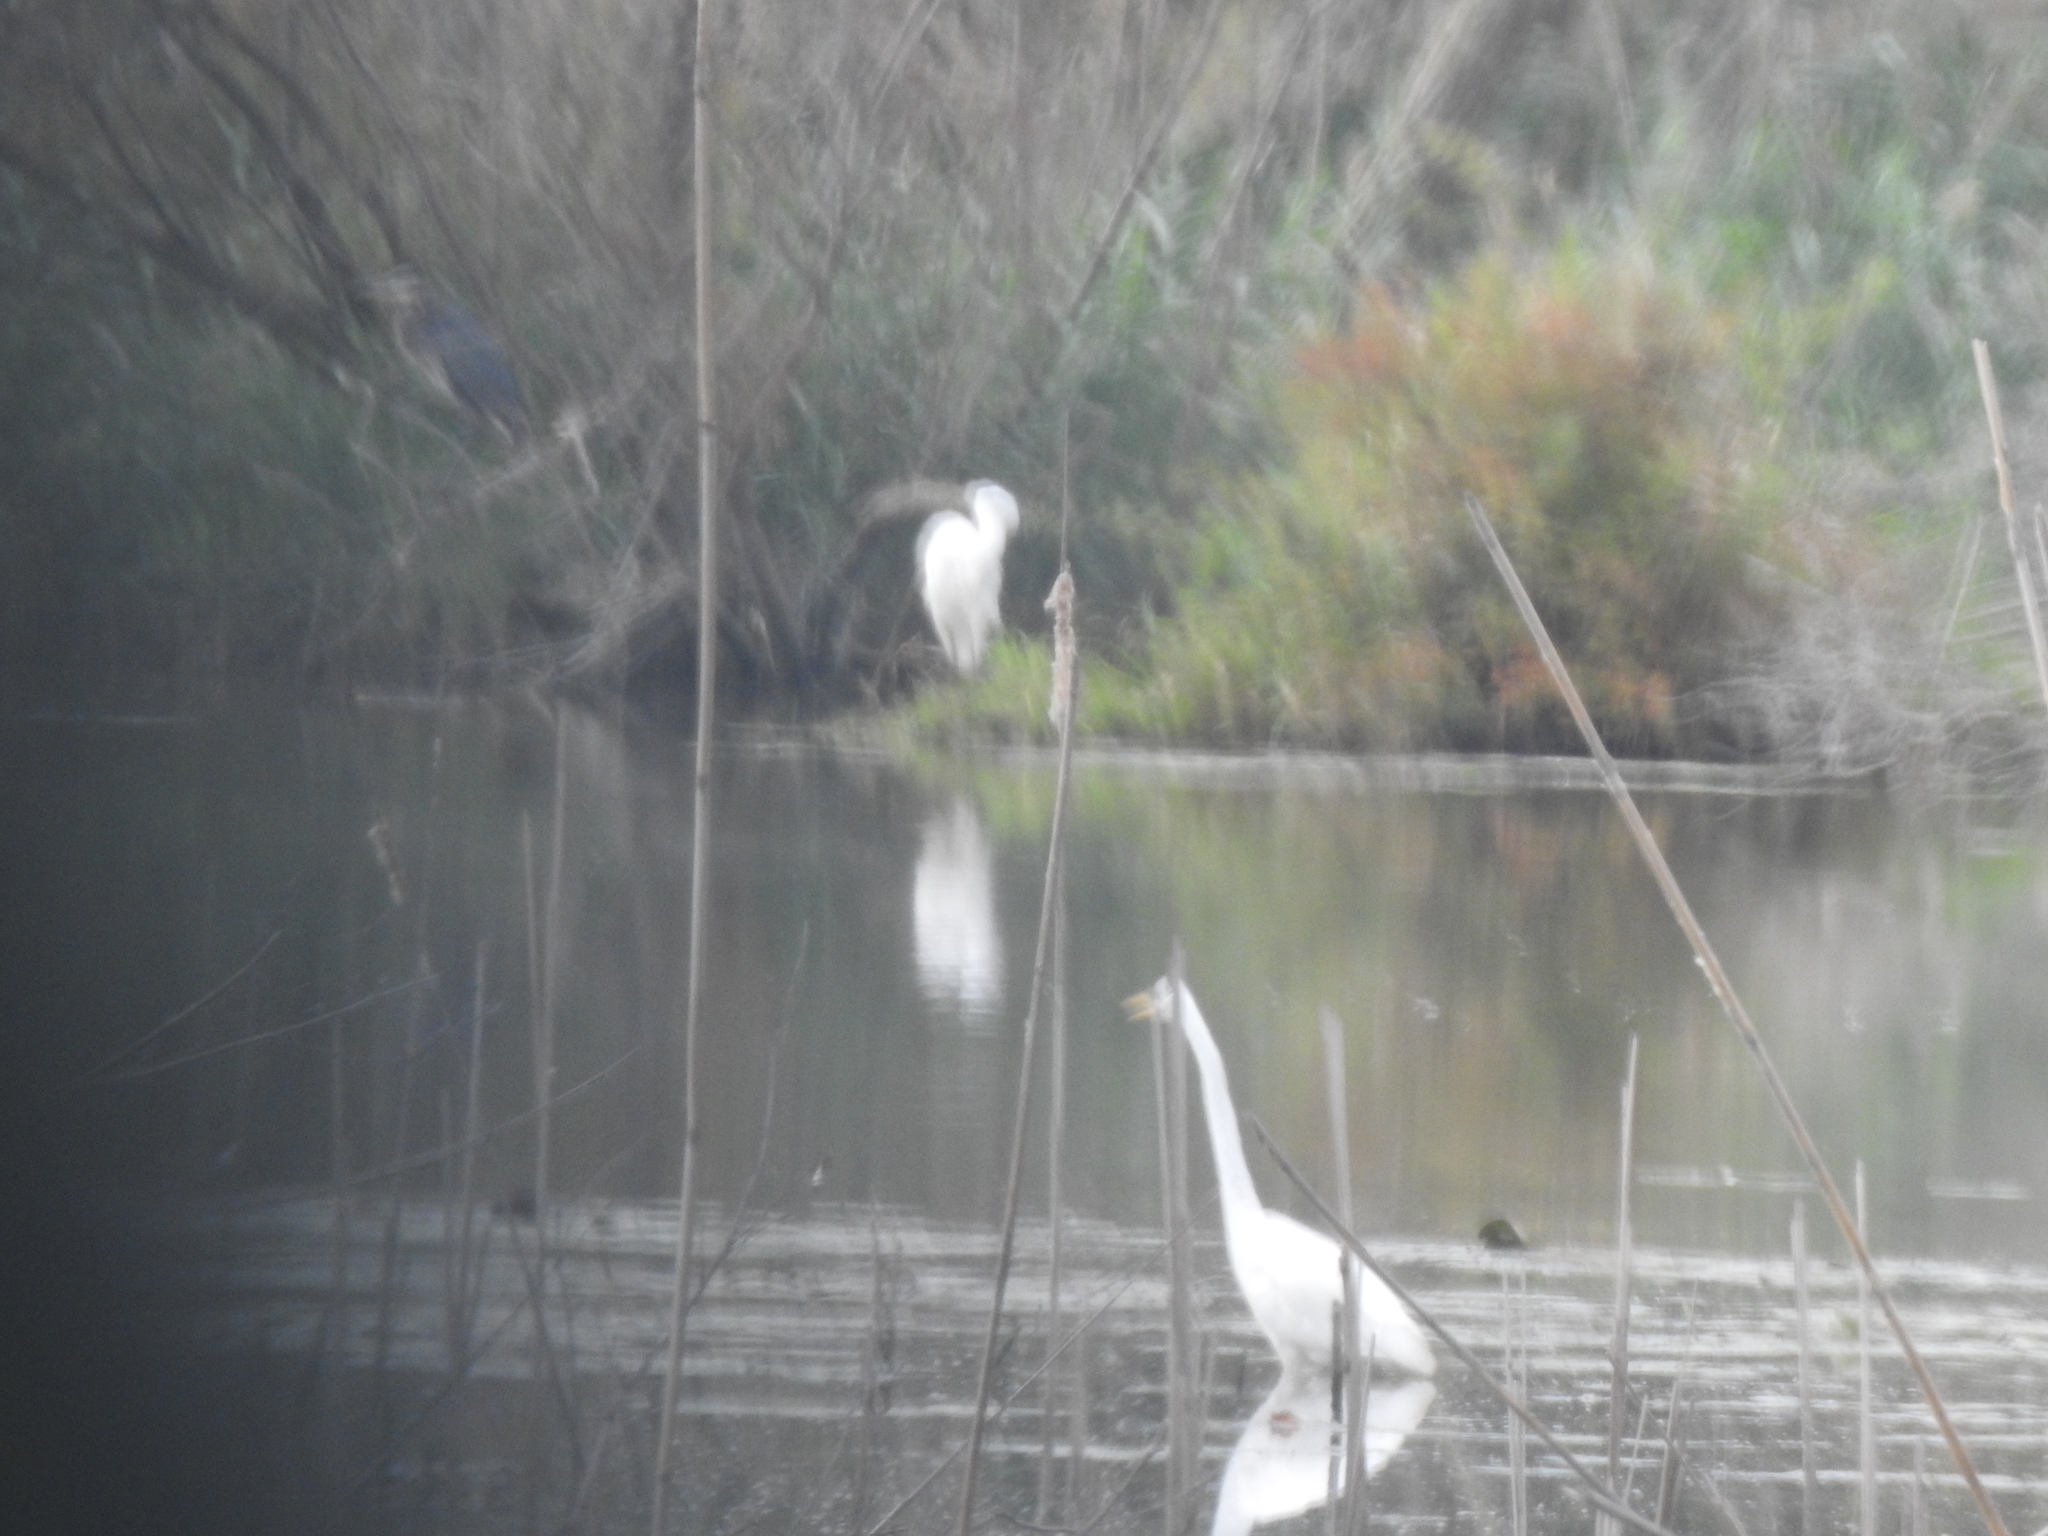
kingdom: Animalia
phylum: Chordata
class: Aves
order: Pelecaniformes
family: Ardeidae
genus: Ardea
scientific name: Ardea alba
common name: Great egret
